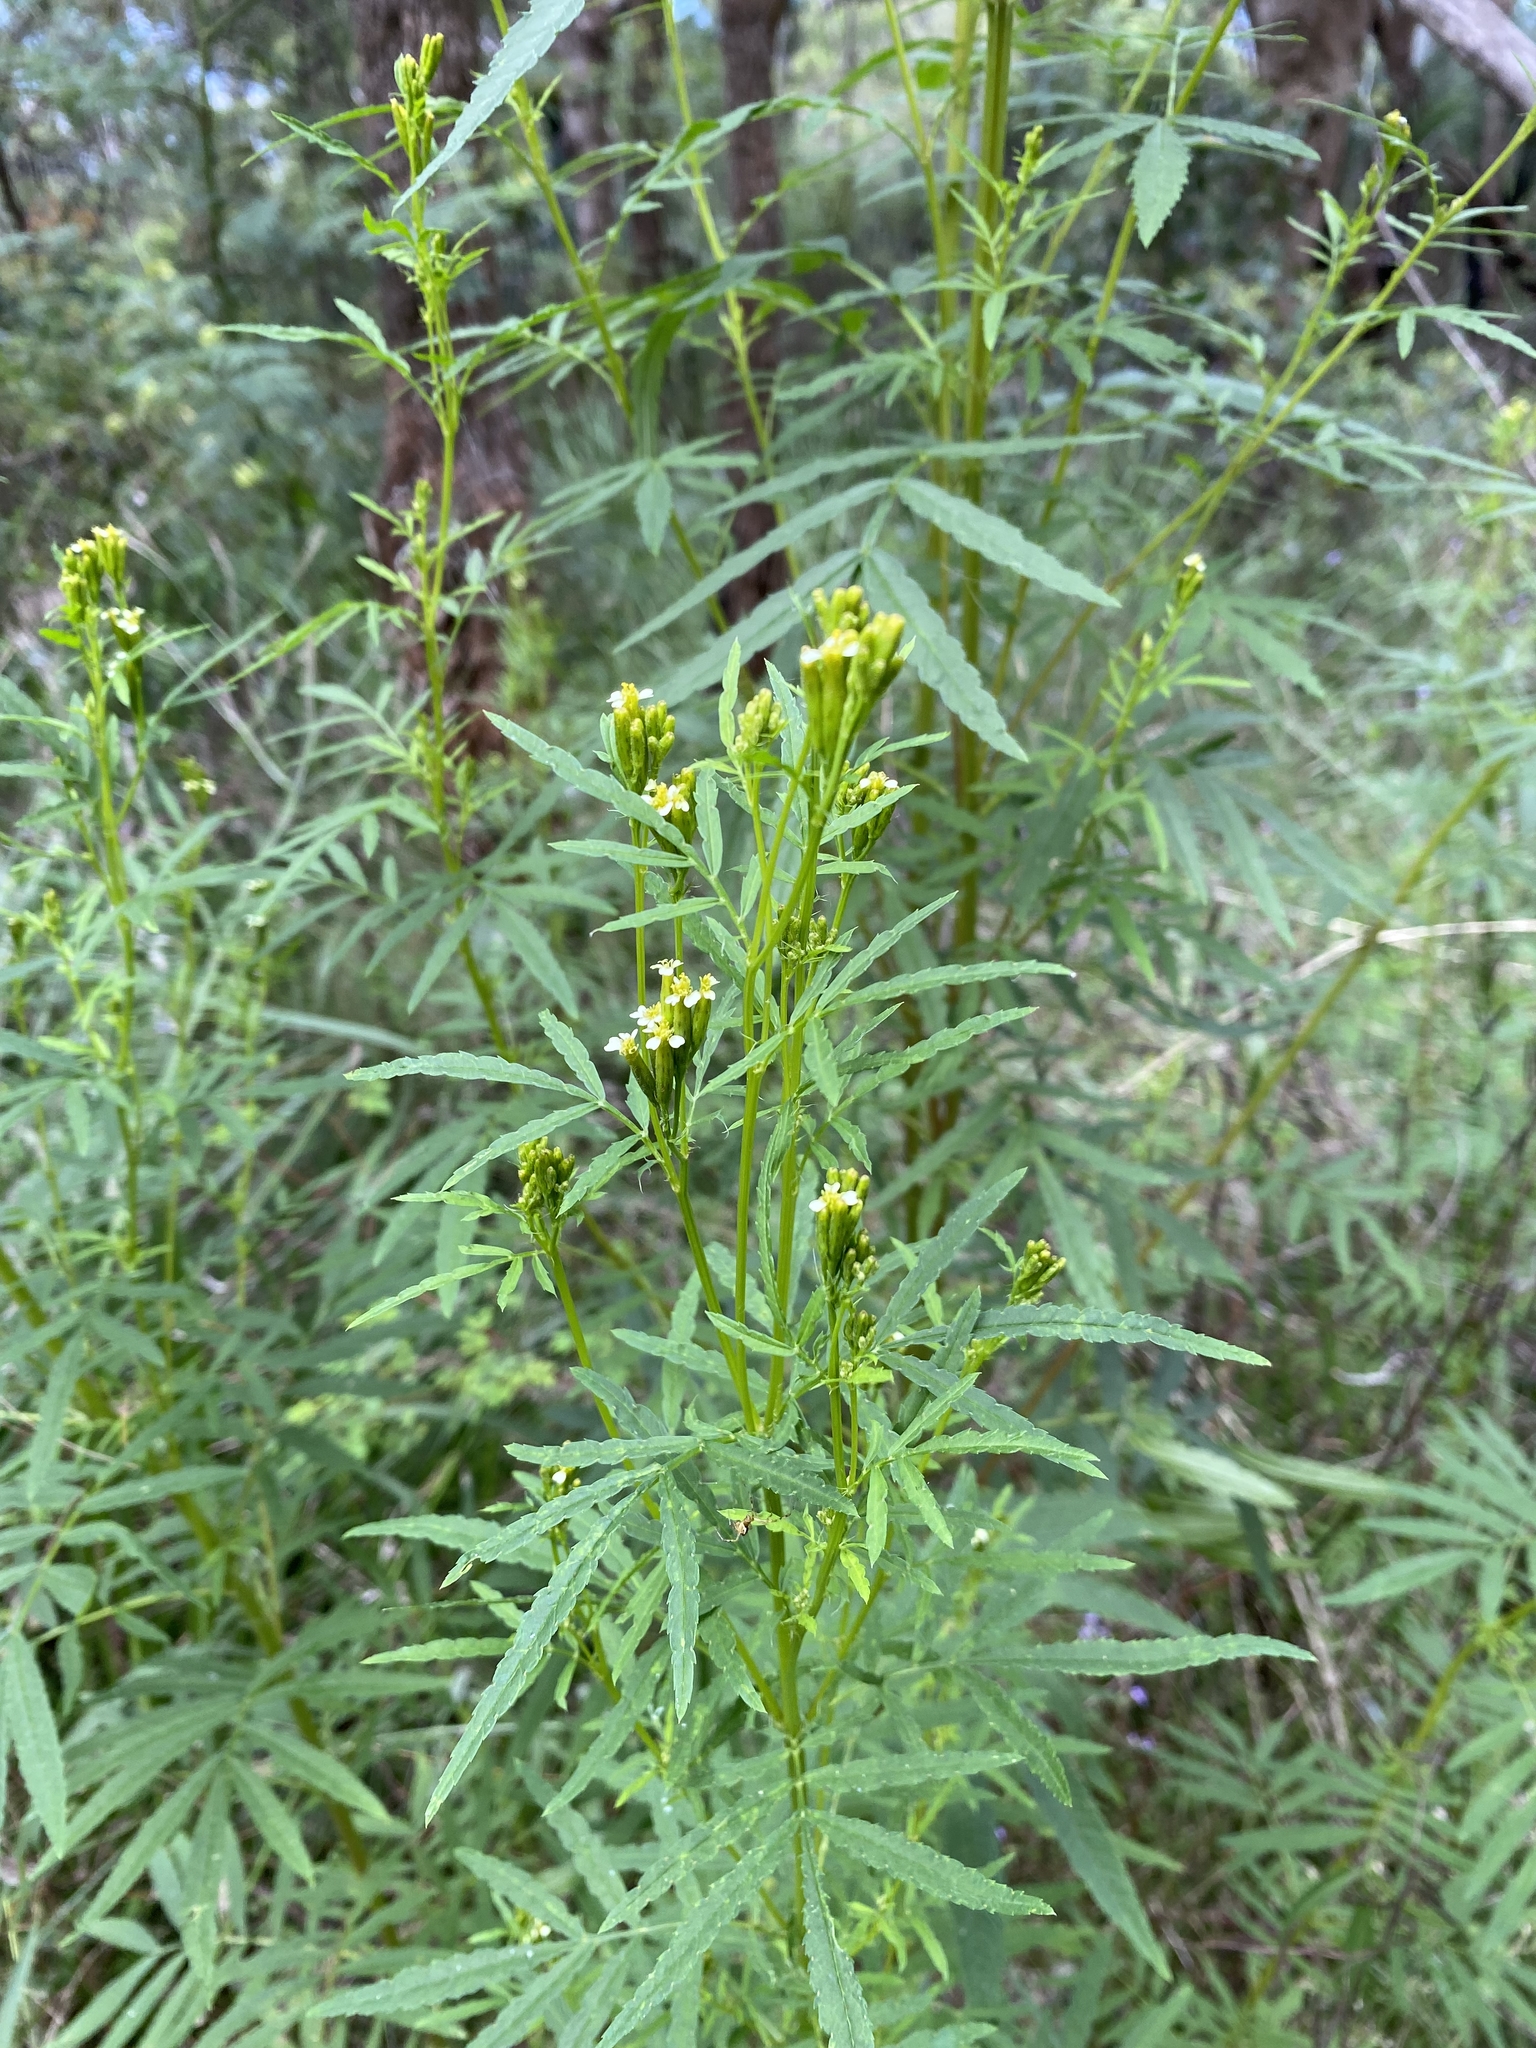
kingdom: Plantae
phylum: Tracheophyta
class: Magnoliopsida
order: Asterales
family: Asteraceae
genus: Tagetes
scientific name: Tagetes minuta
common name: Muster john henry
